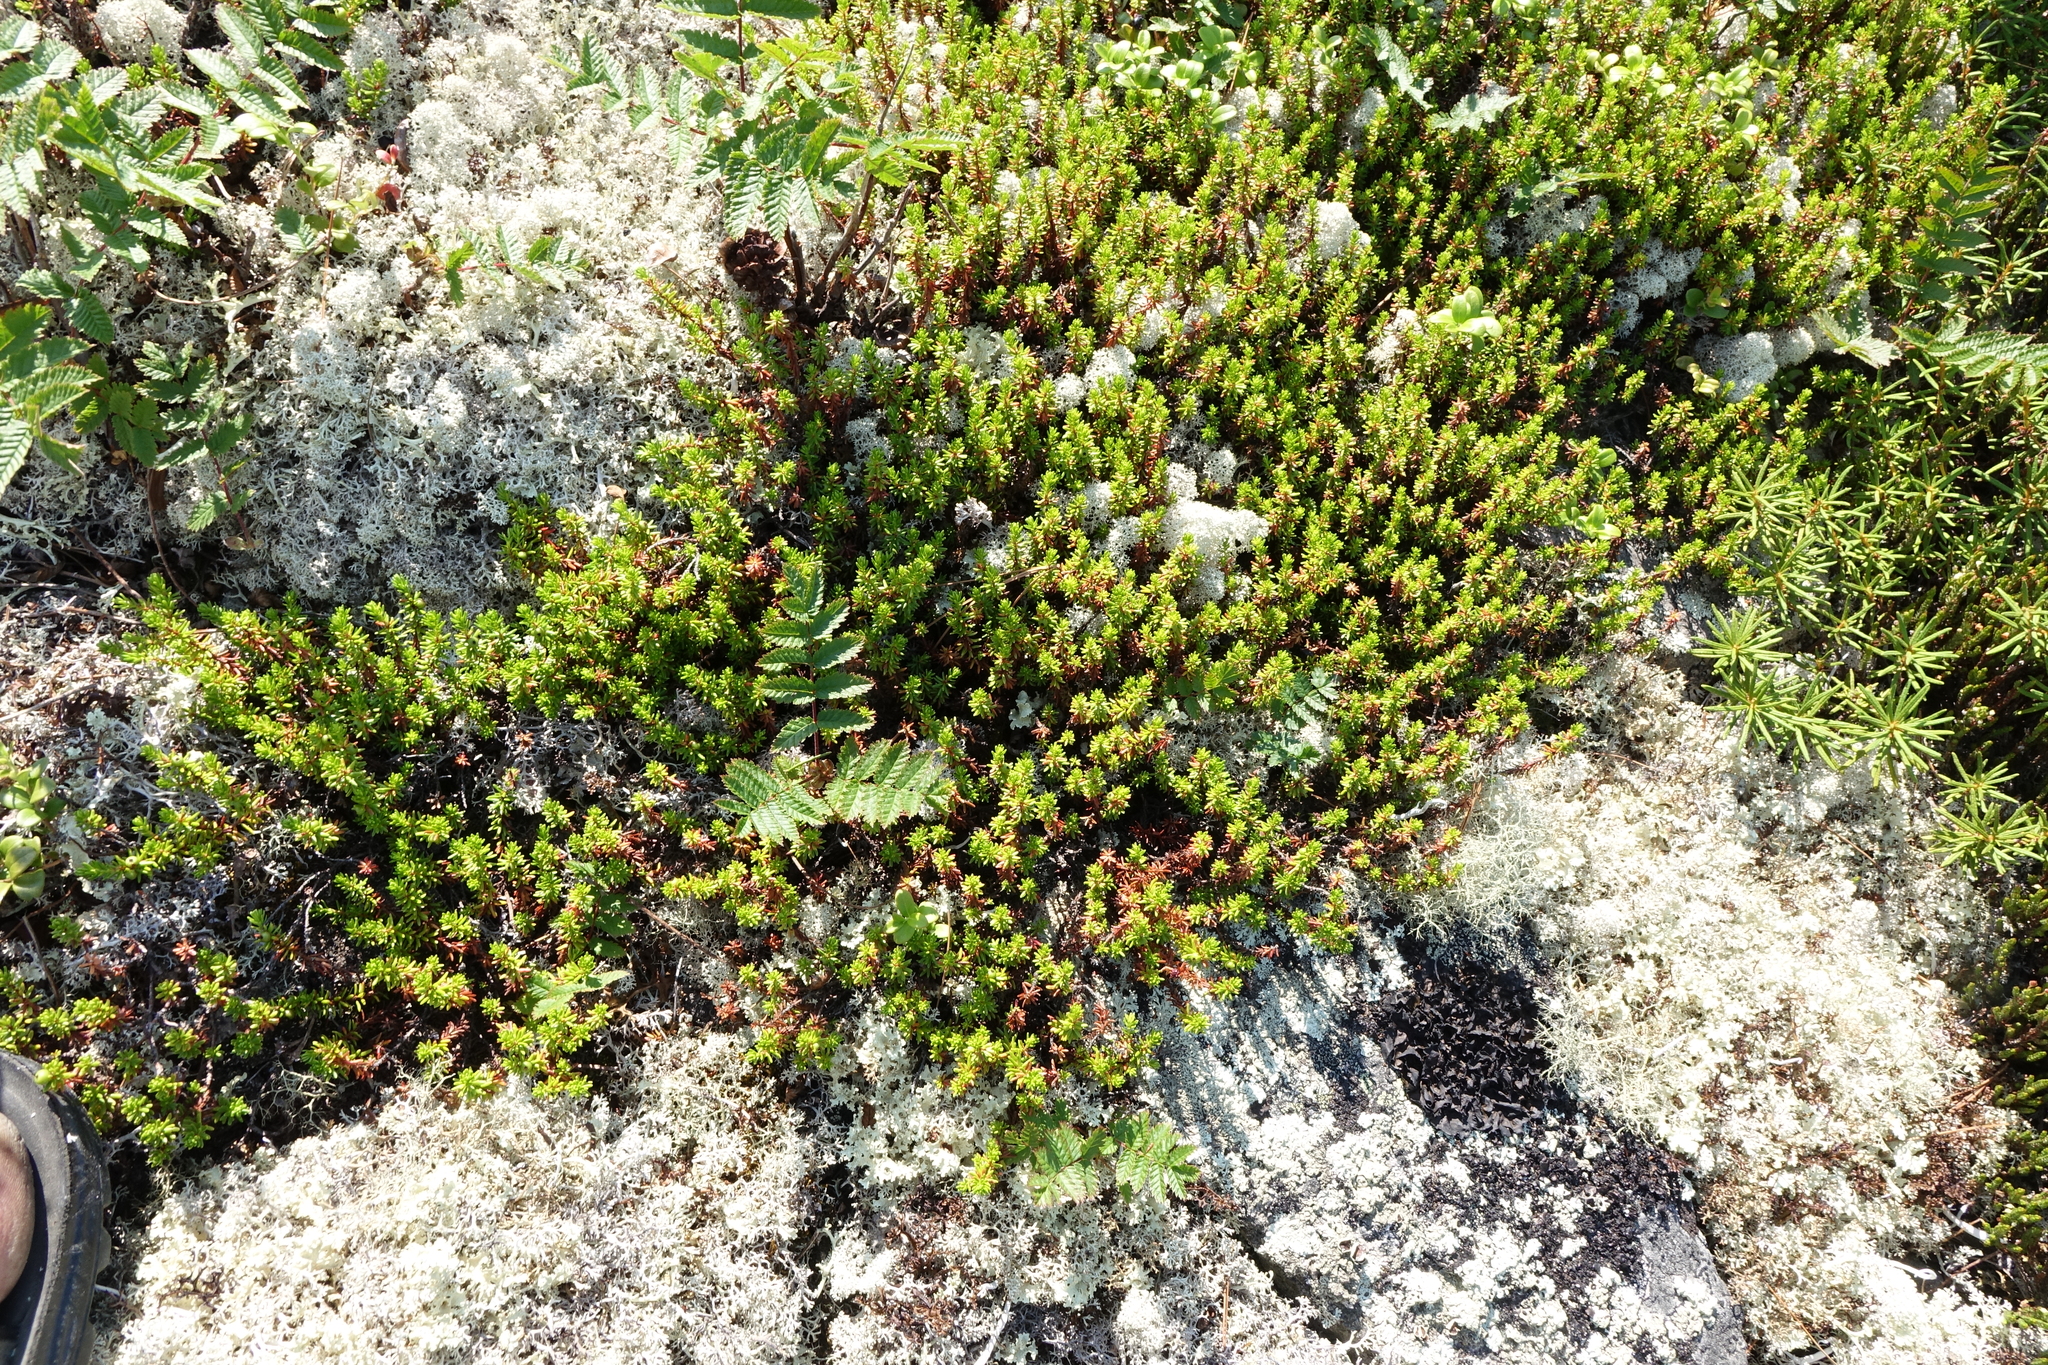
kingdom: Plantae
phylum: Tracheophyta
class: Magnoliopsida
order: Ericales
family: Ericaceae
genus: Empetrum
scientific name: Empetrum nigrum
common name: Black crowberry
